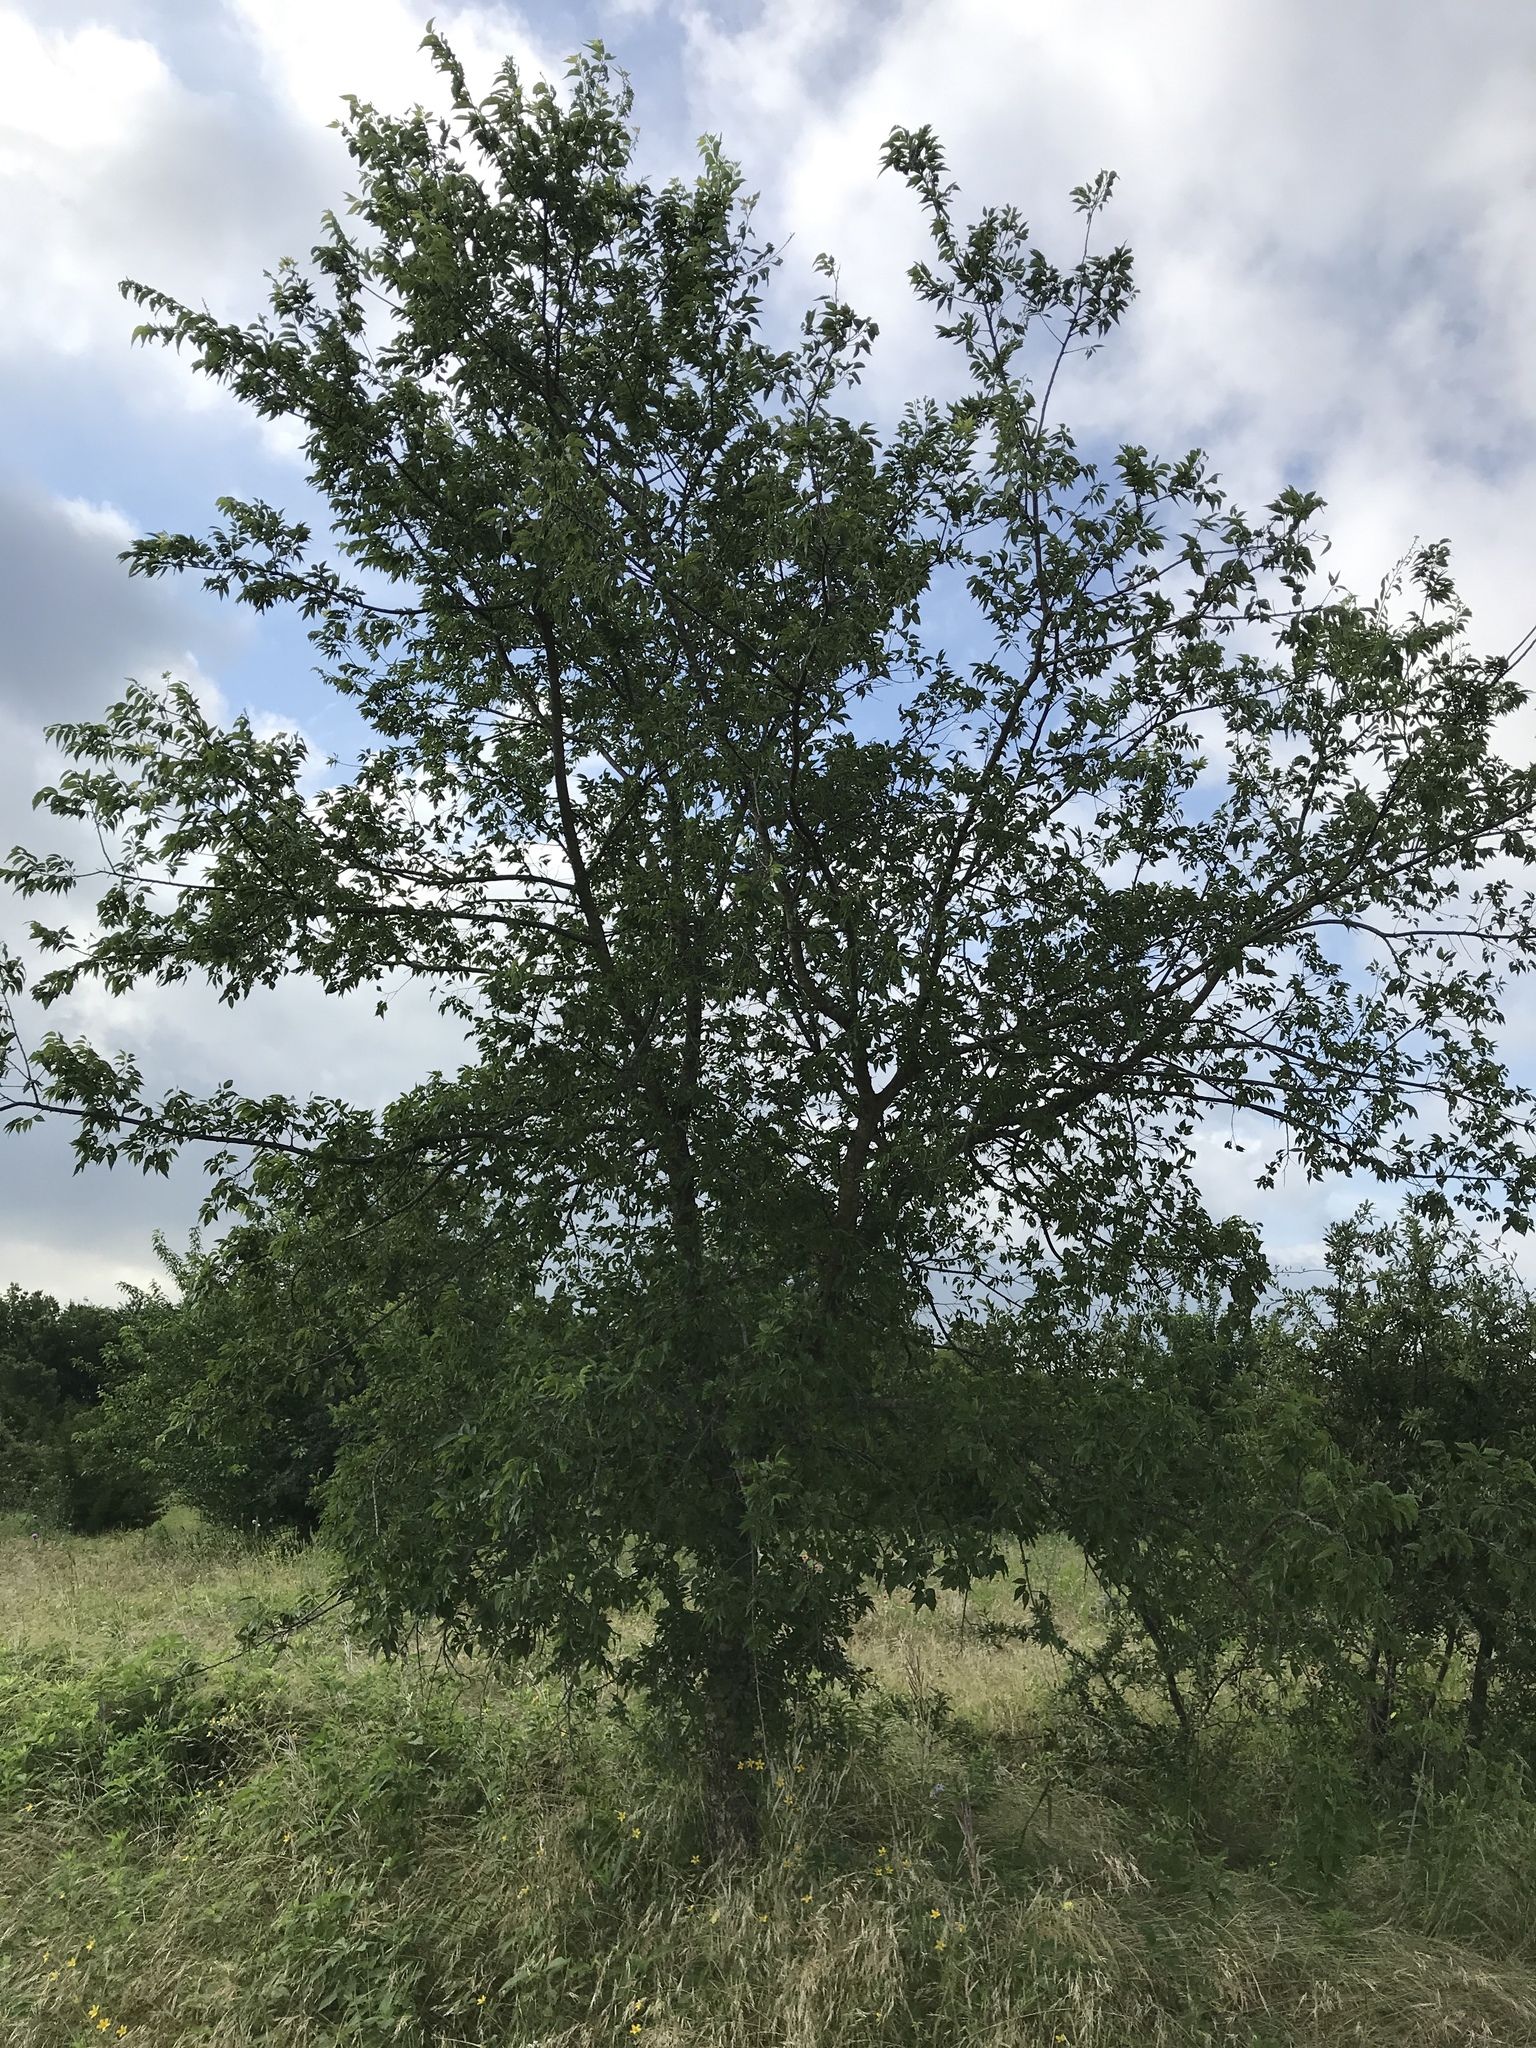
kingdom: Plantae
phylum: Tracheophyta
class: Magnoliopsida
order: Rosales
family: Cannabaceae
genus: Celtis
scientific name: Celtis laevigata
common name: Sugarberry
